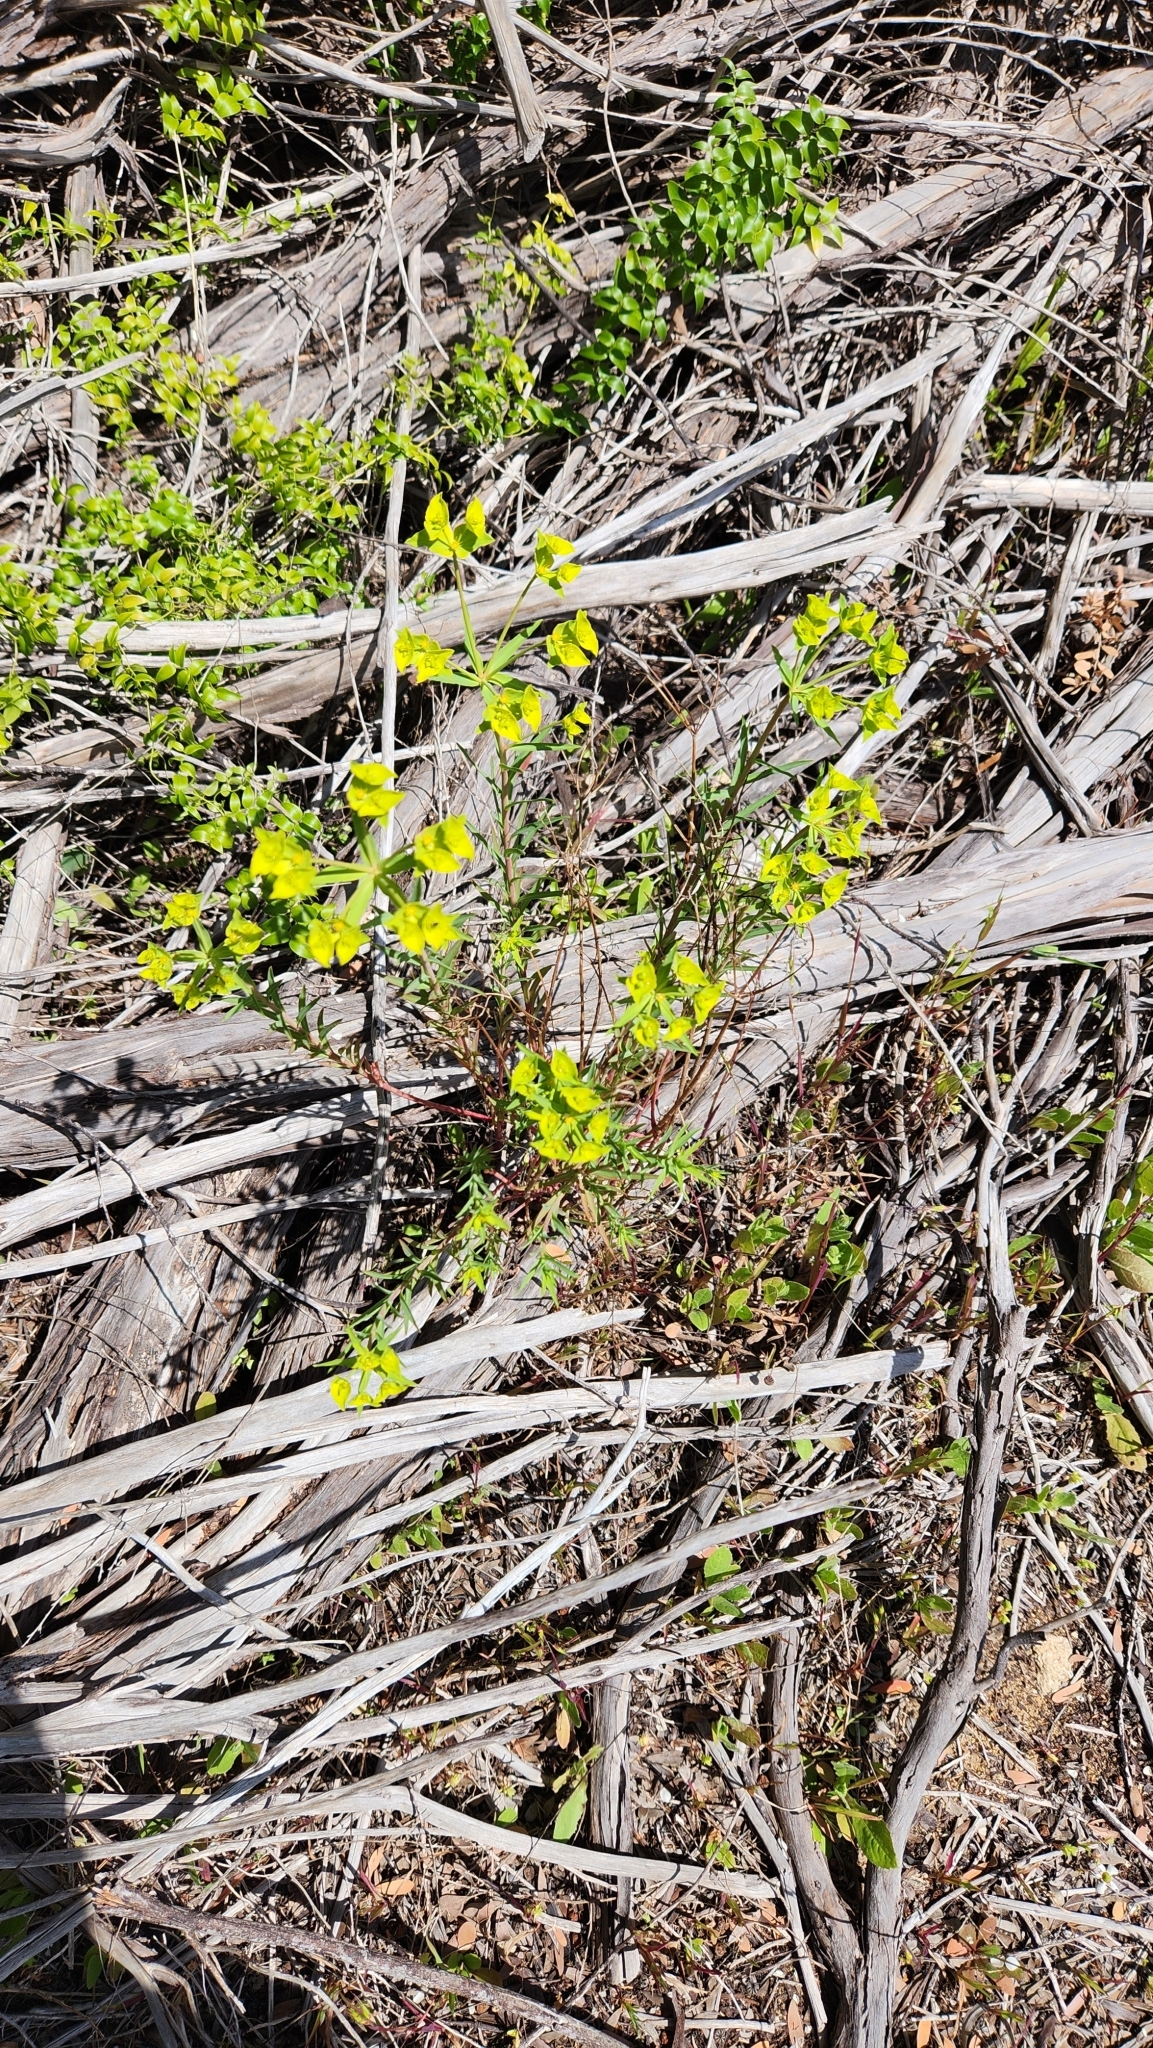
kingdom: Plantae
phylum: Tracheophyta
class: Magnoliopsida
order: Malpighiales
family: Euphorbiaceae
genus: Euphorbia
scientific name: Euphorbia terracina
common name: Geraldton carnation weed
